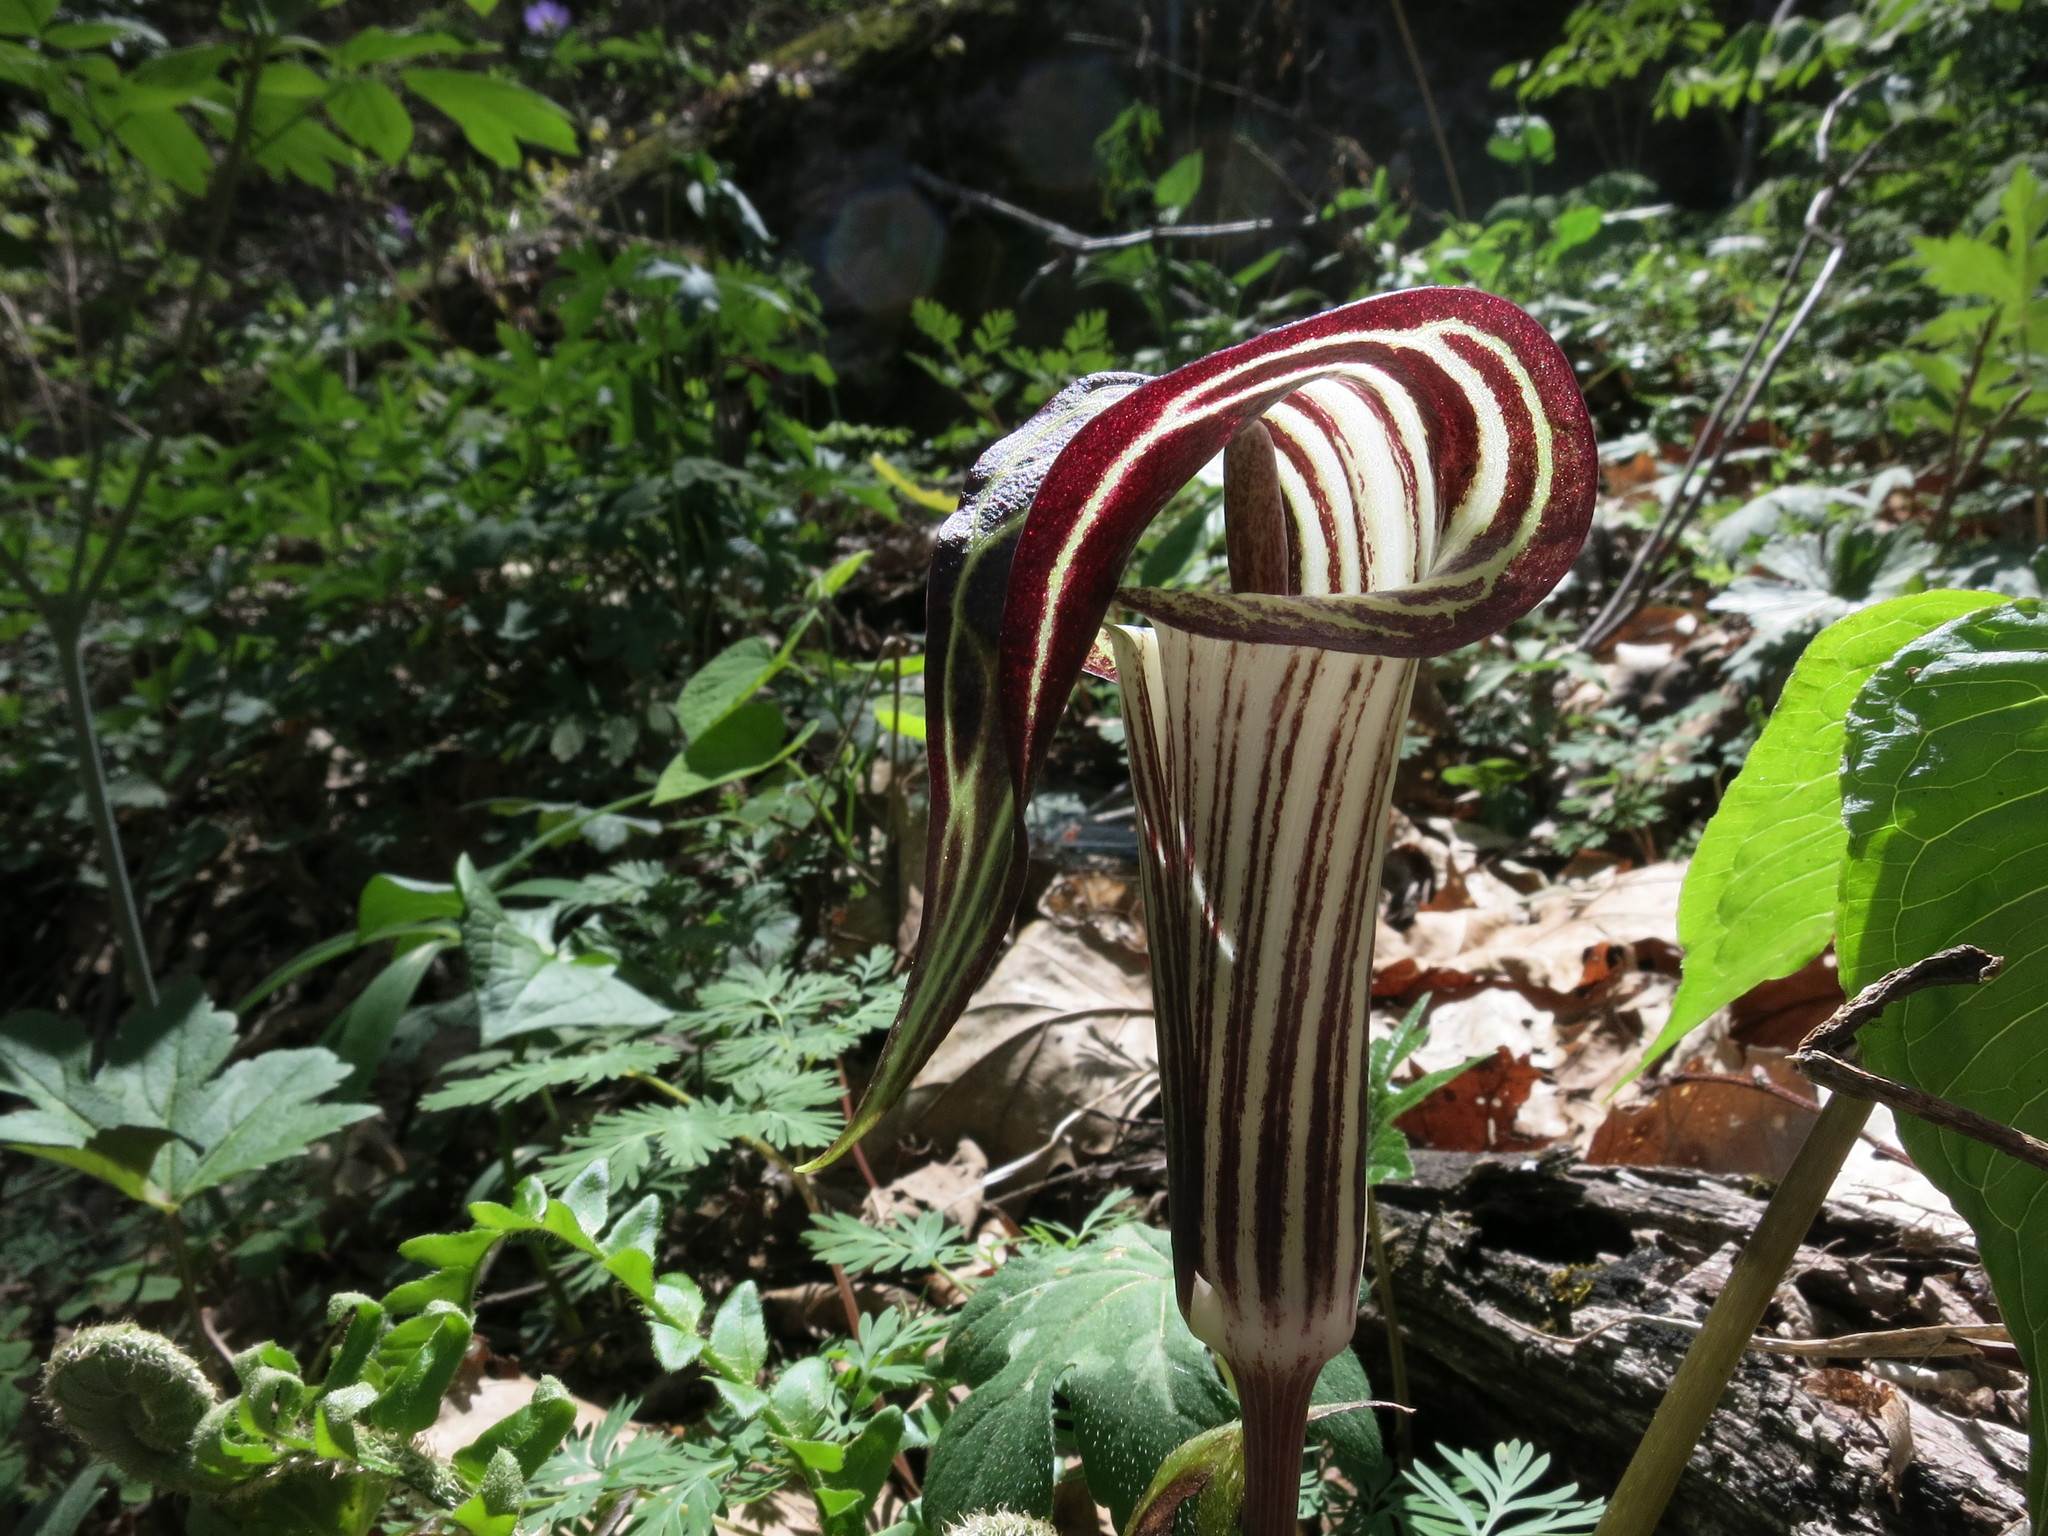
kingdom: Plantae
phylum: Tracheophyta
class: Liliopsida
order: Alismatales
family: Araceae
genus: Arisaema
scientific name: Arisaema triphyllum
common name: Jack-in-the-pulpit
